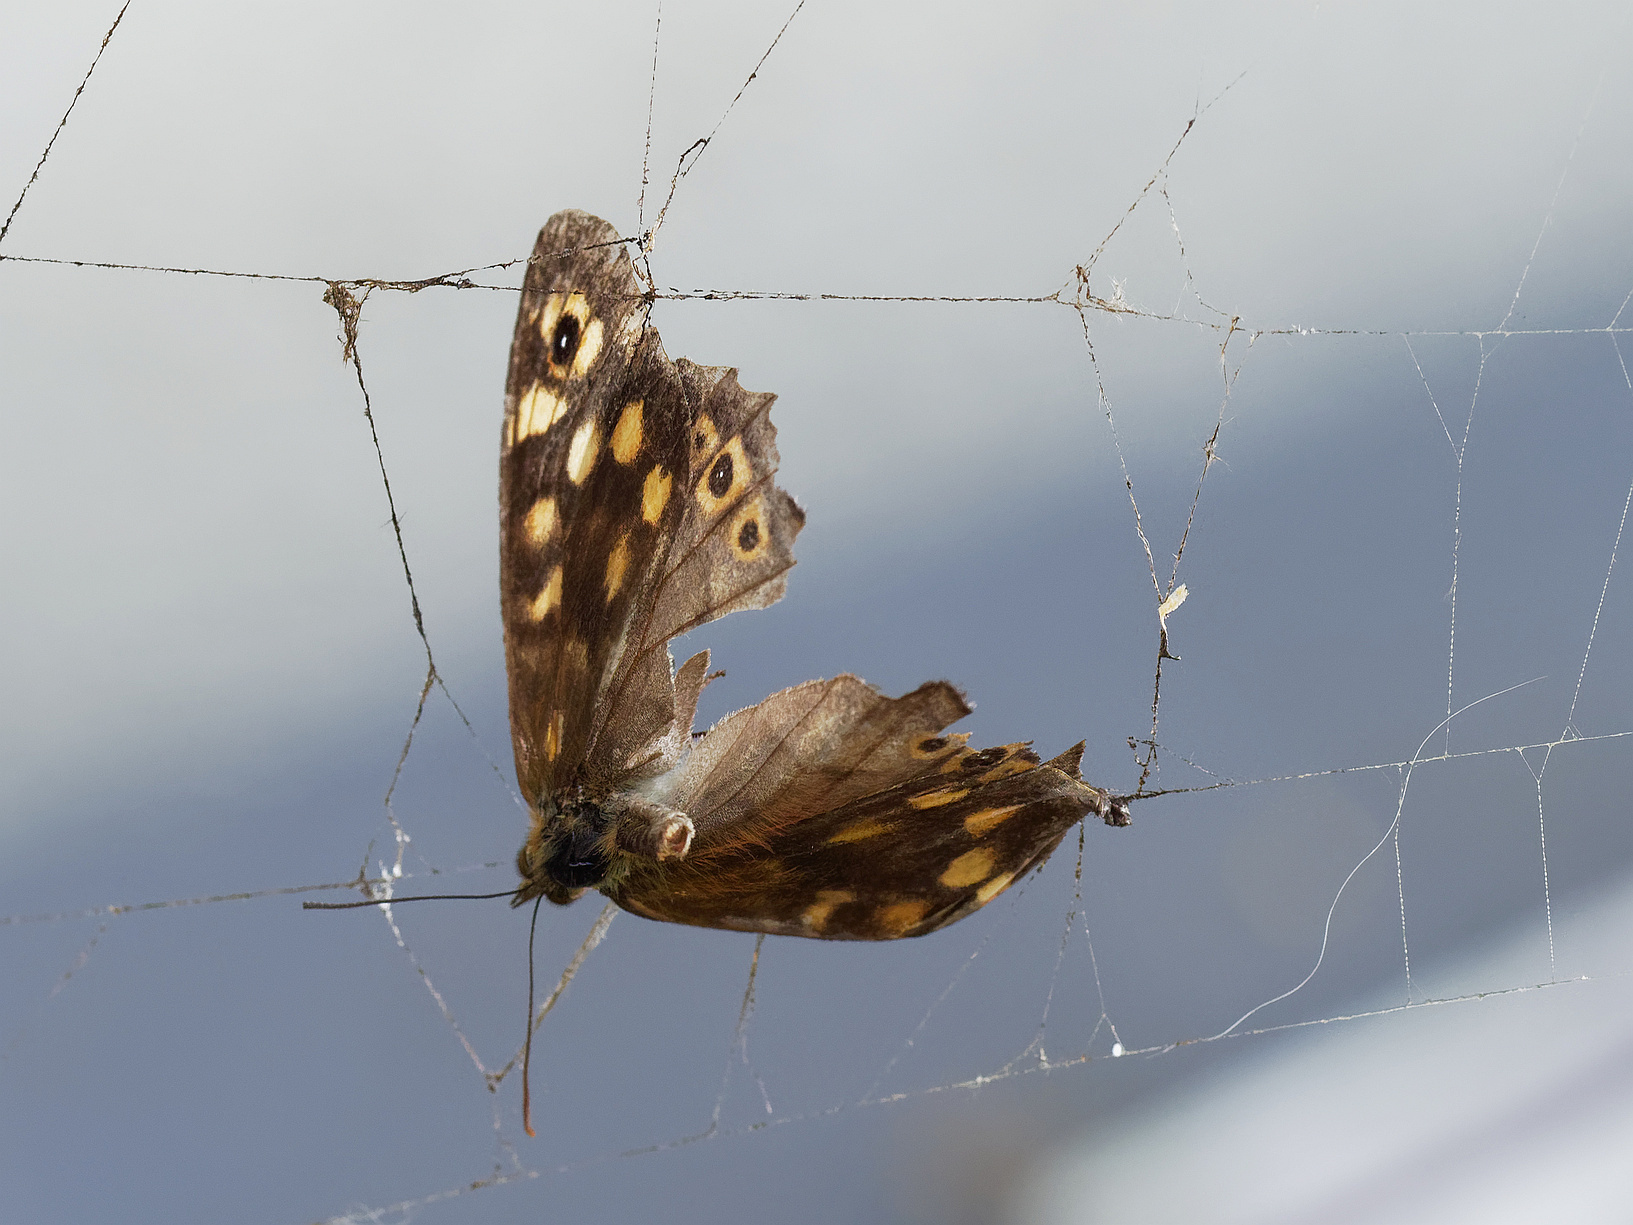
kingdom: Animalia
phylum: Arthropoda
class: Insecta
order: Lepidoptera
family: Nymphalidae
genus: Pararge
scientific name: Pararge aegeria
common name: Speckled wood
